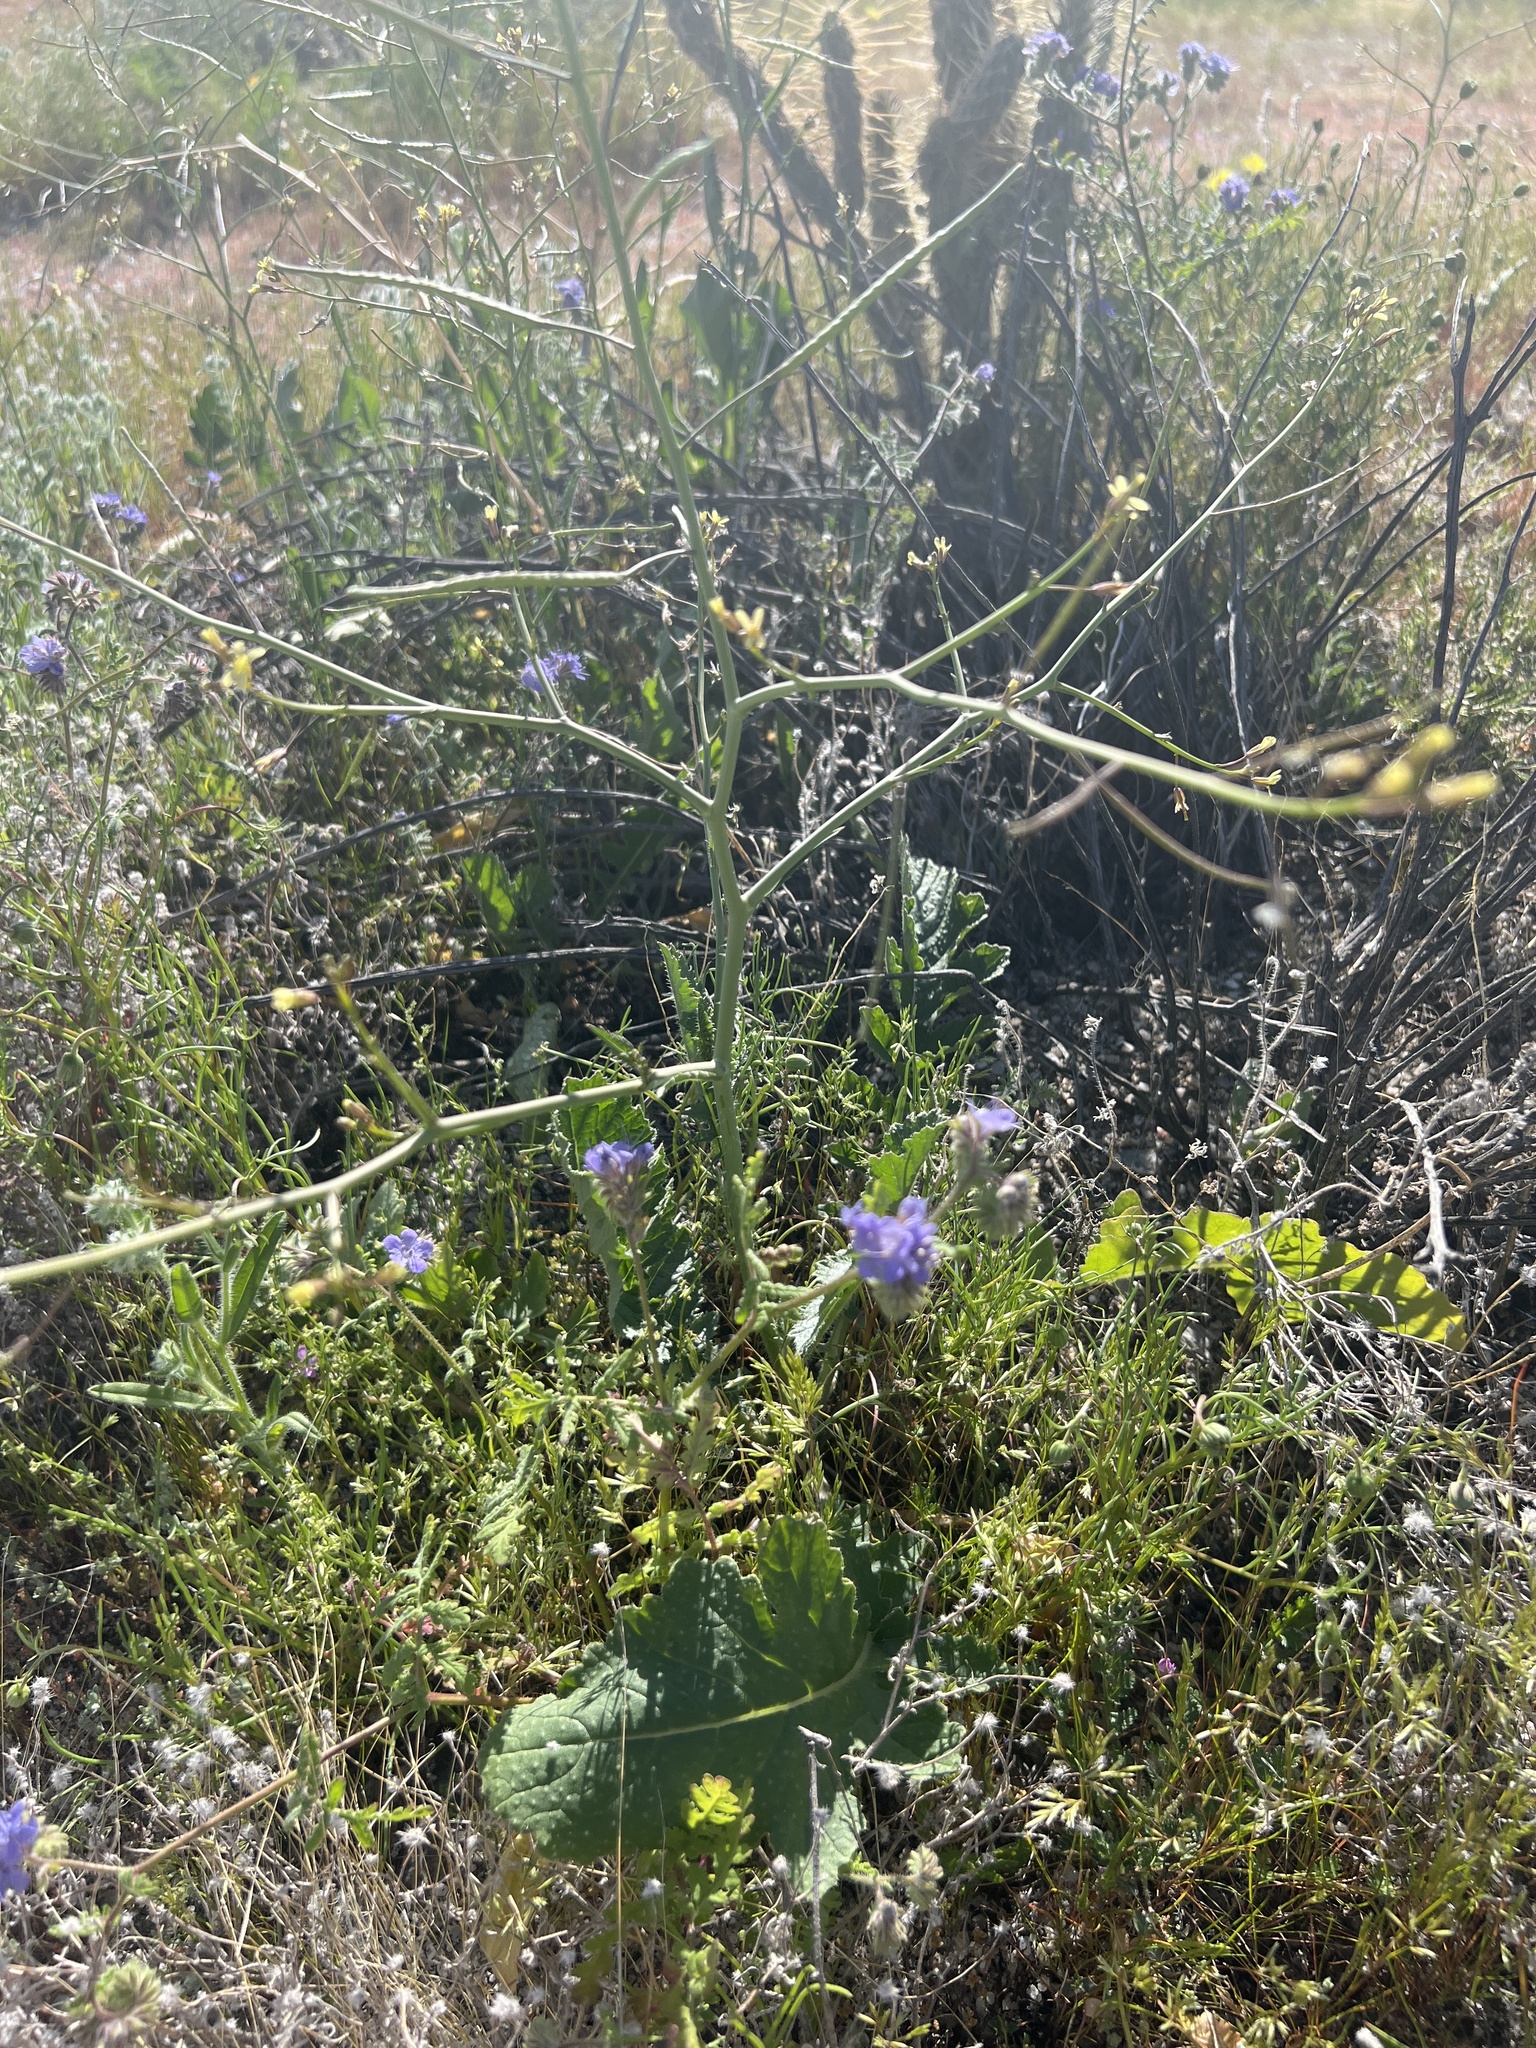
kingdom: Plantae
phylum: Tracheophyta
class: Magnoliopsida
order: Brassicales
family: Brassicaceae
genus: Brassica
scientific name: Brassica tournefortii
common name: Pale cabbage
